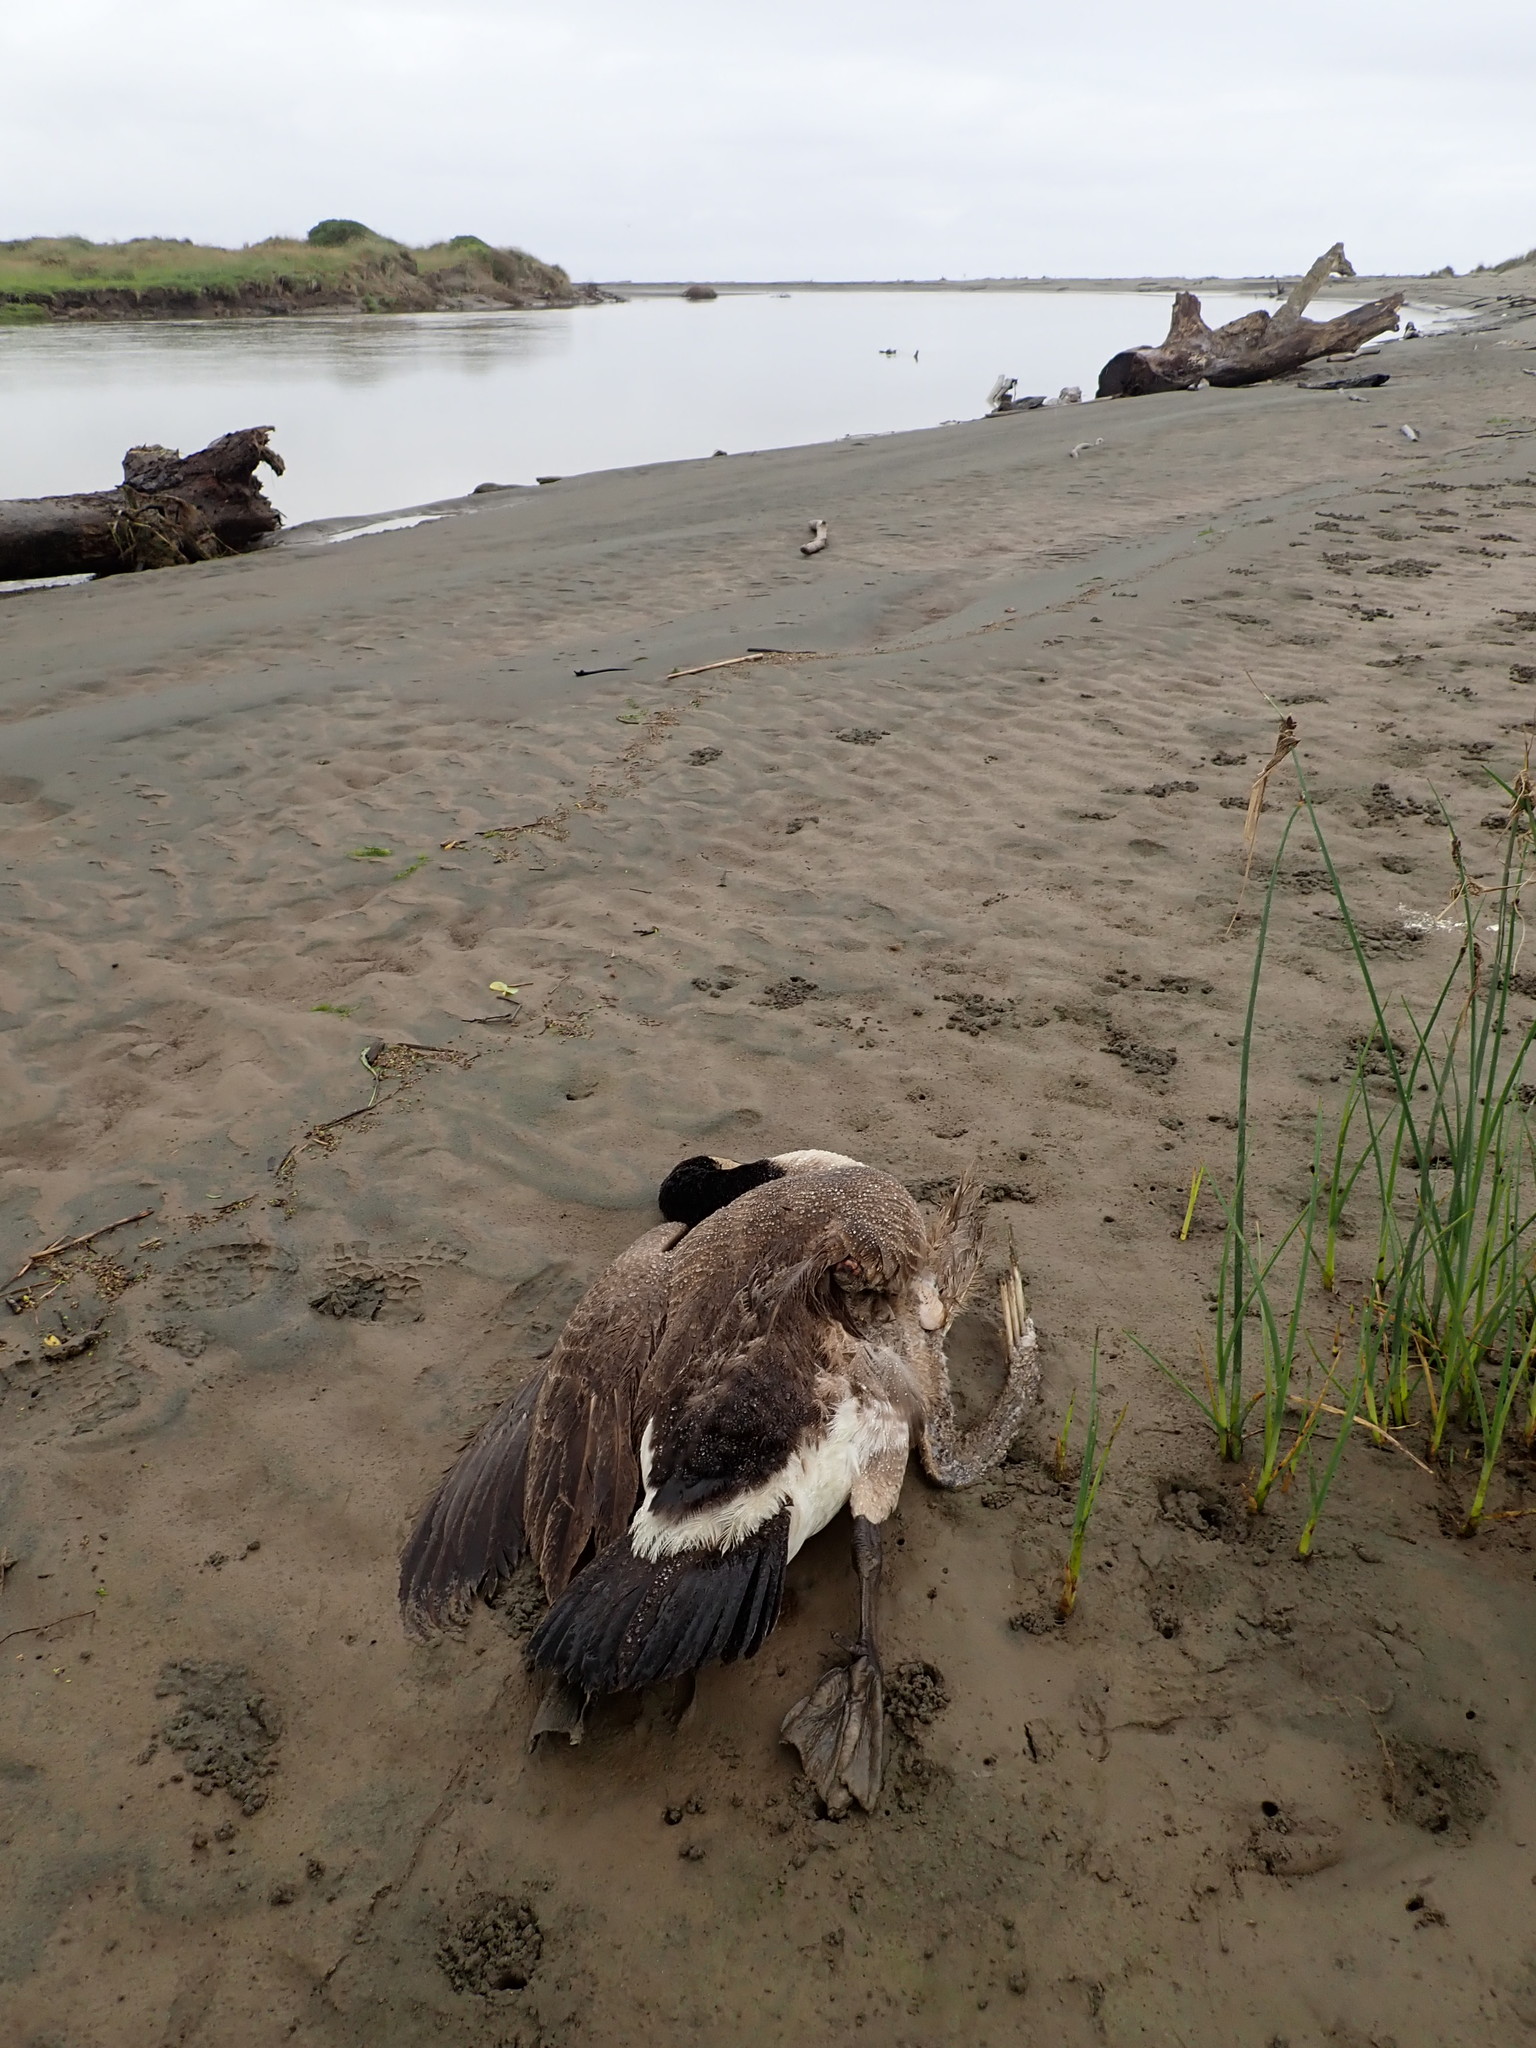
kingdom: Animalia
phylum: Chordata
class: Aves
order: Anseriformes
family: Anatidae
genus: Branta
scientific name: Branta canadensis
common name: Canada goose
